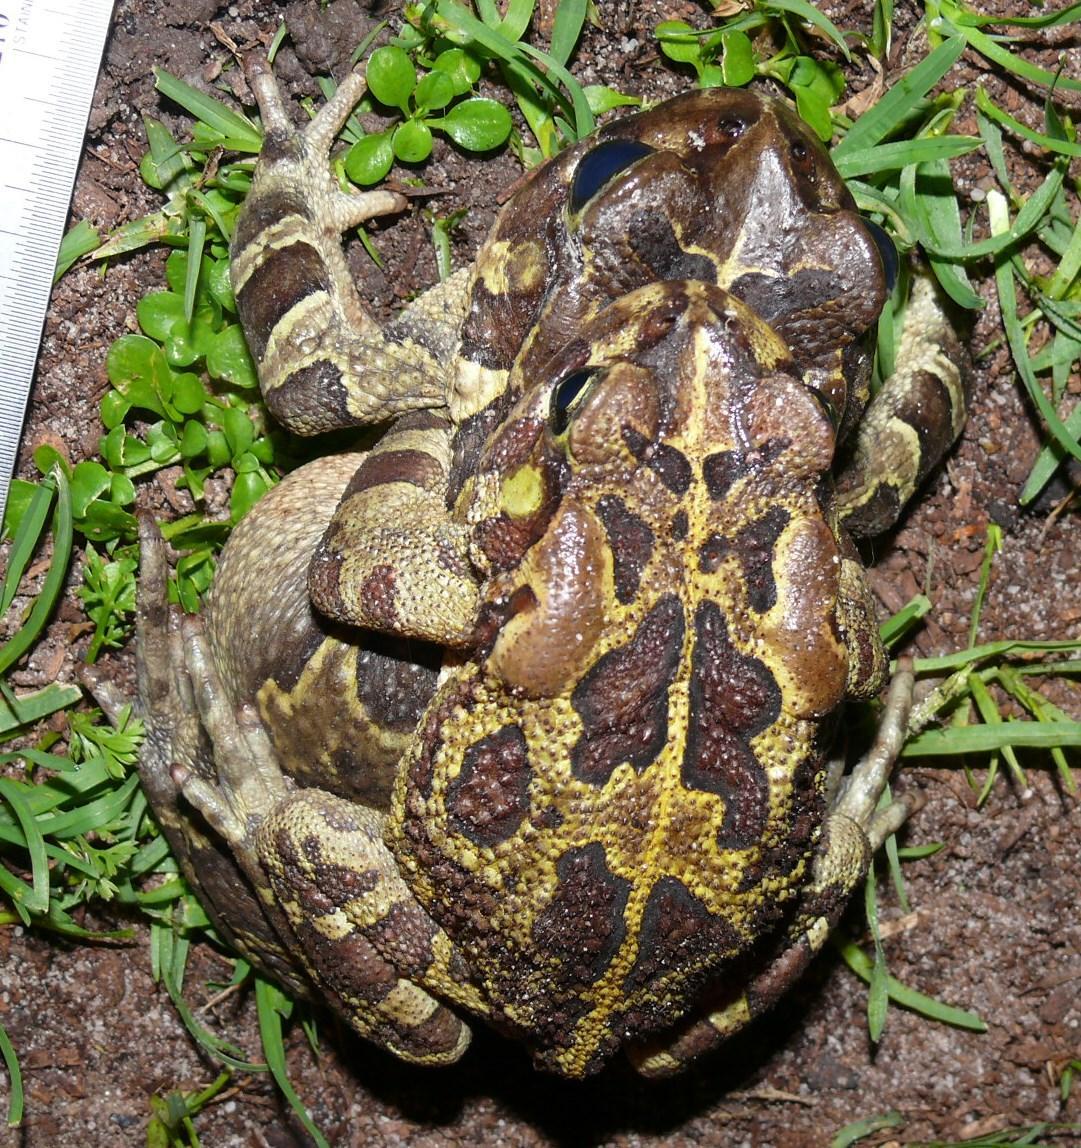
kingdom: Animalia
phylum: Chordata
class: Amphibia
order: Anura
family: Bufonidae
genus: Sclerophrys
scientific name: Sclerophrys pantherina
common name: Panther toad
